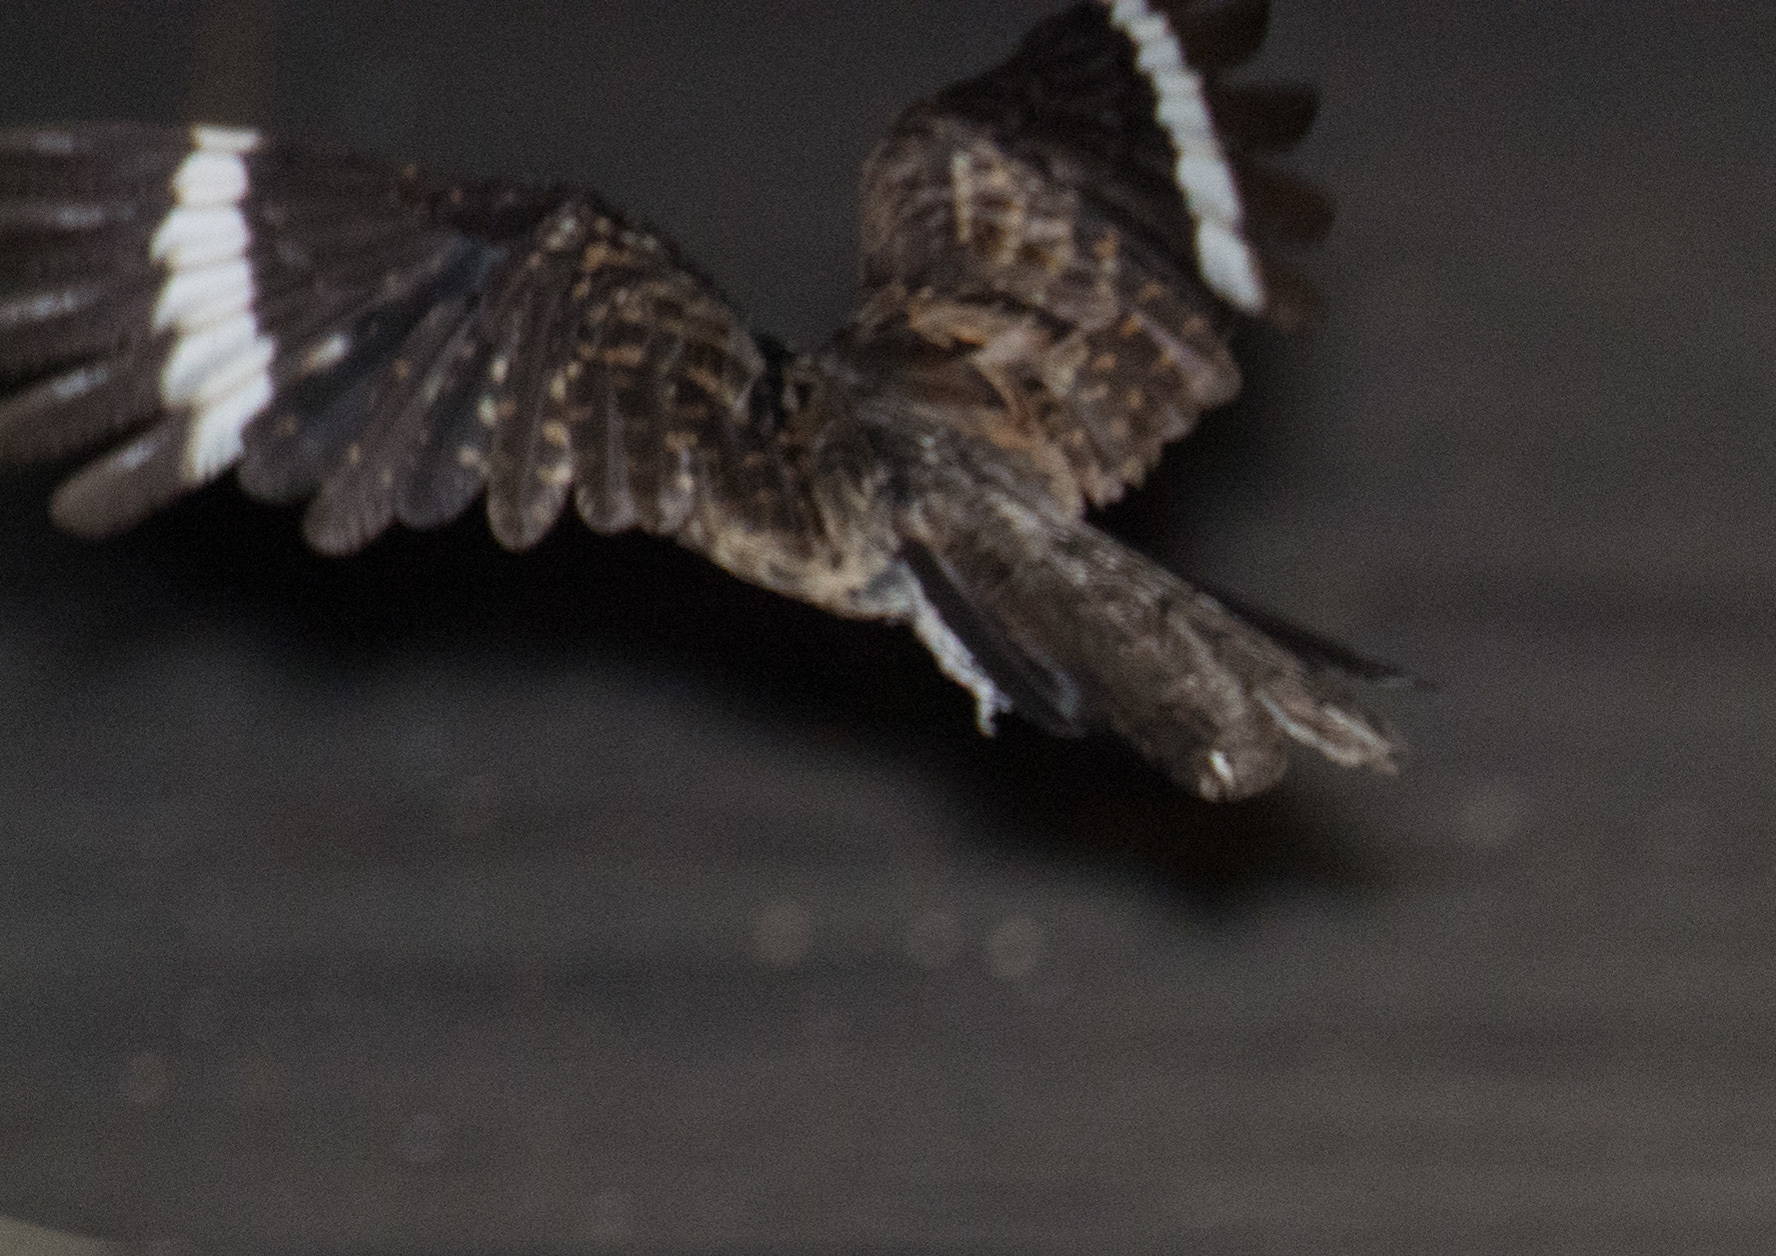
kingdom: Animalia
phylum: Chordata
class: Aves
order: Caprimulgiformes
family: Caprimulgidae
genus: Hydropsalis
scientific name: Hydropsalis cayennensis
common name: White-tailed nightjar
